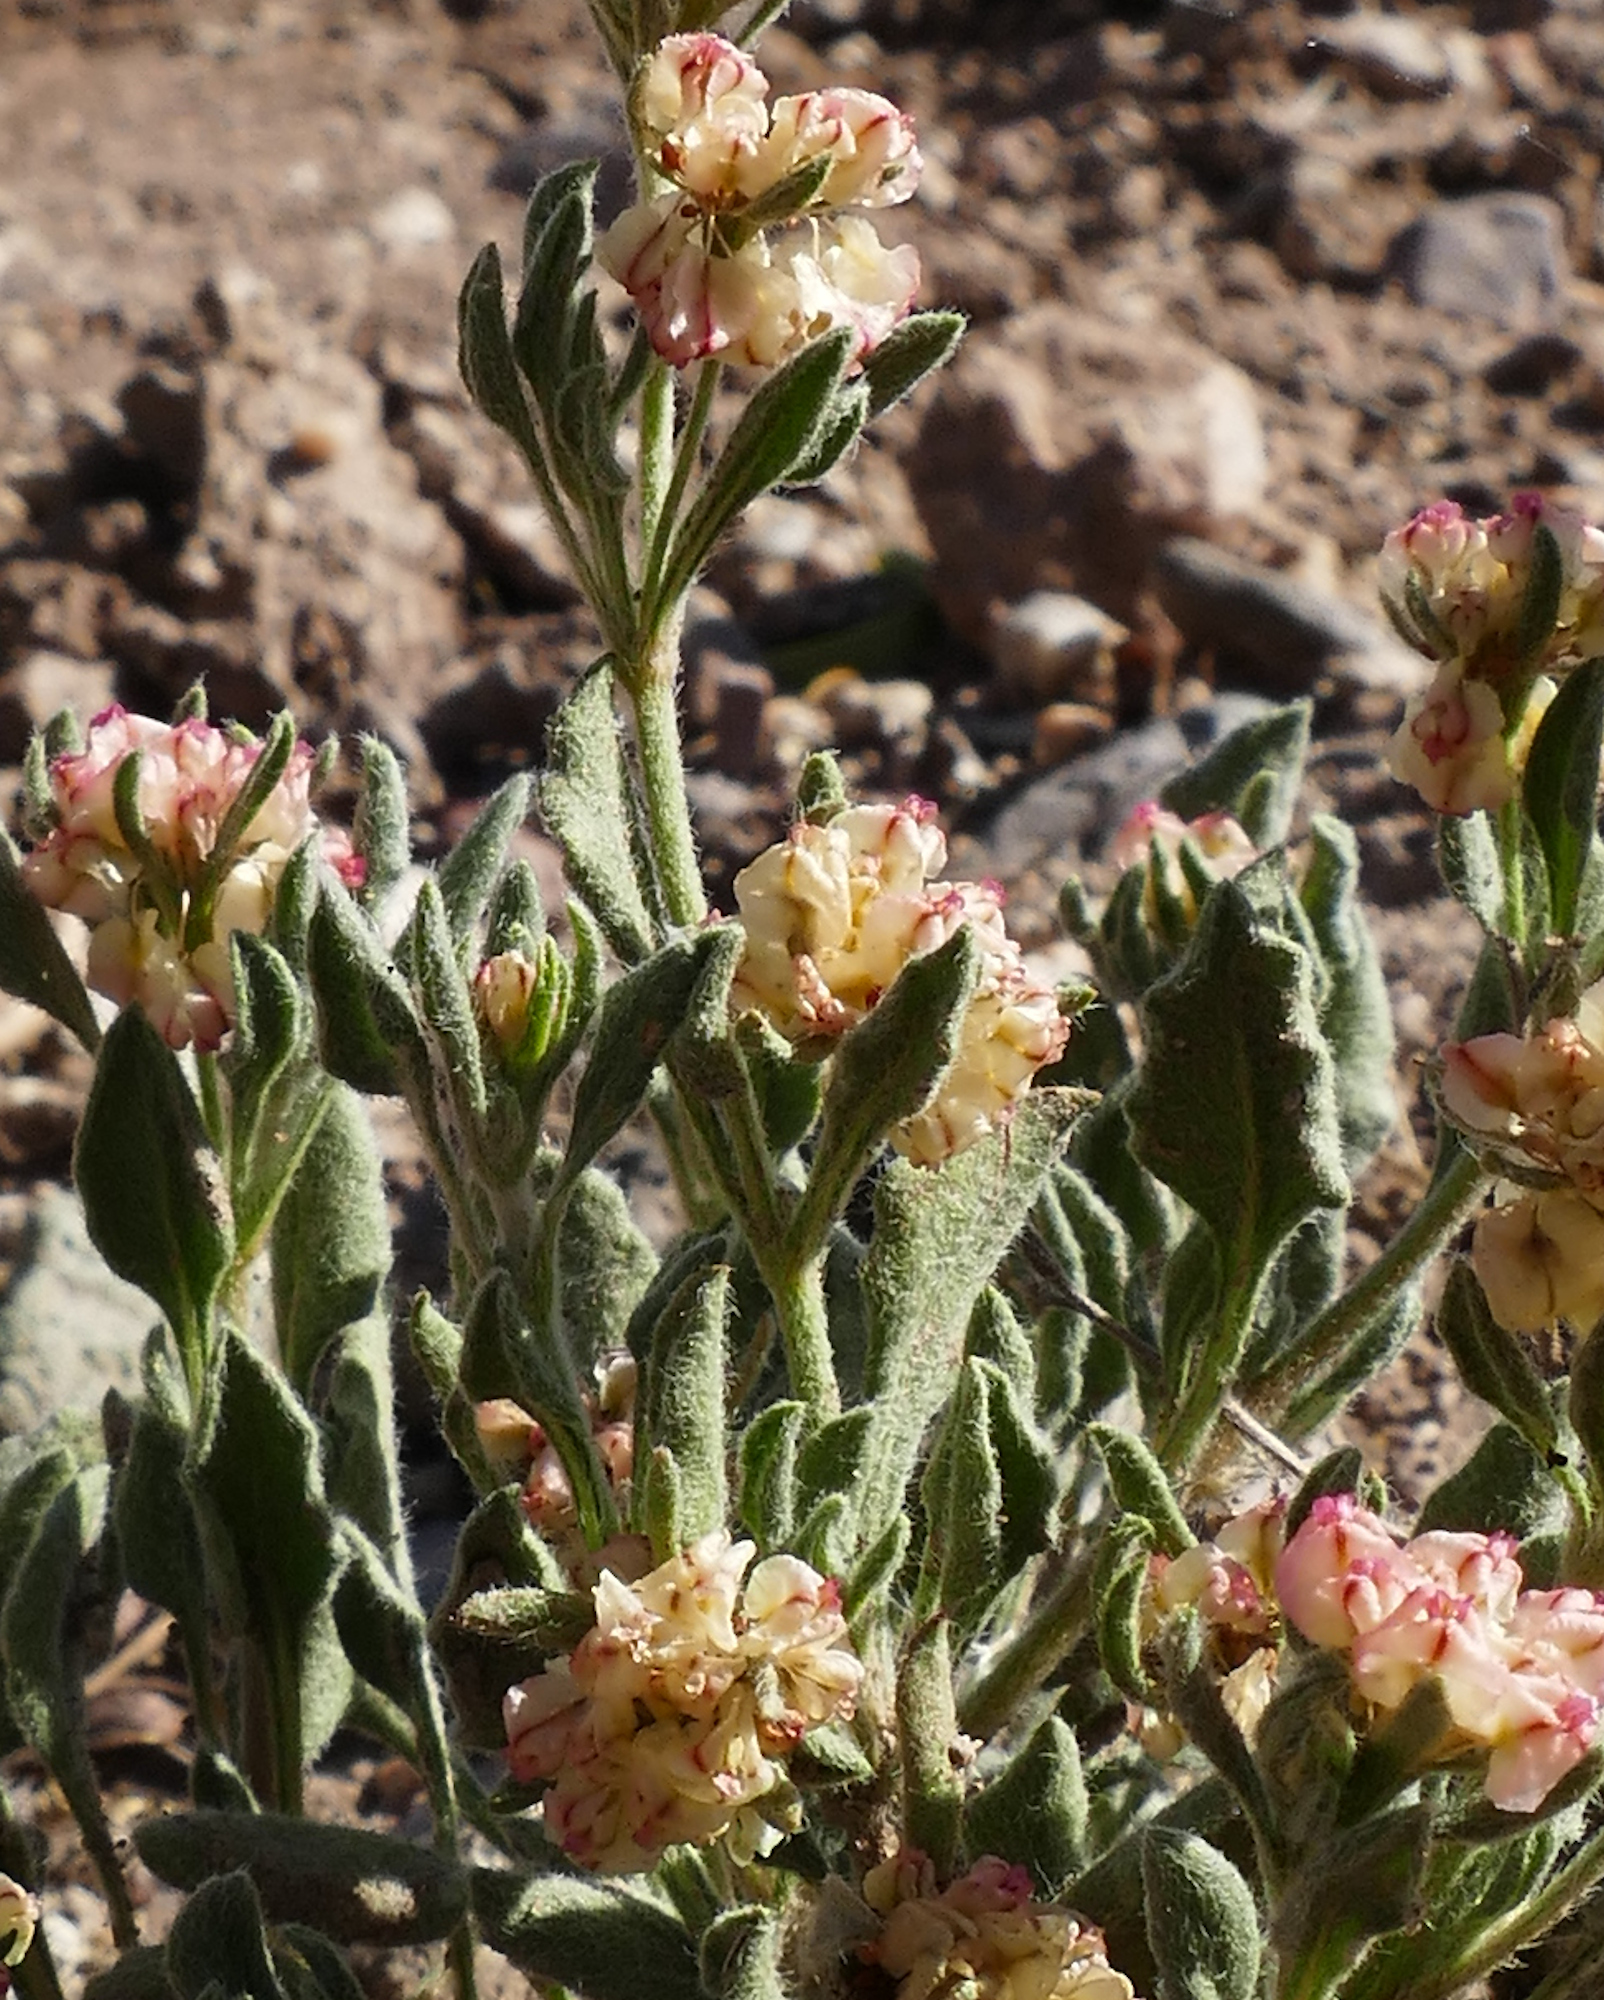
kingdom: Plantae
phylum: Tracheophyta
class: Magnoliopsida
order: Caryophyllales
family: Polygonaceae
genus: Eriogonum
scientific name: Eriogonum abertianum
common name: Abert's wild buckwheat
